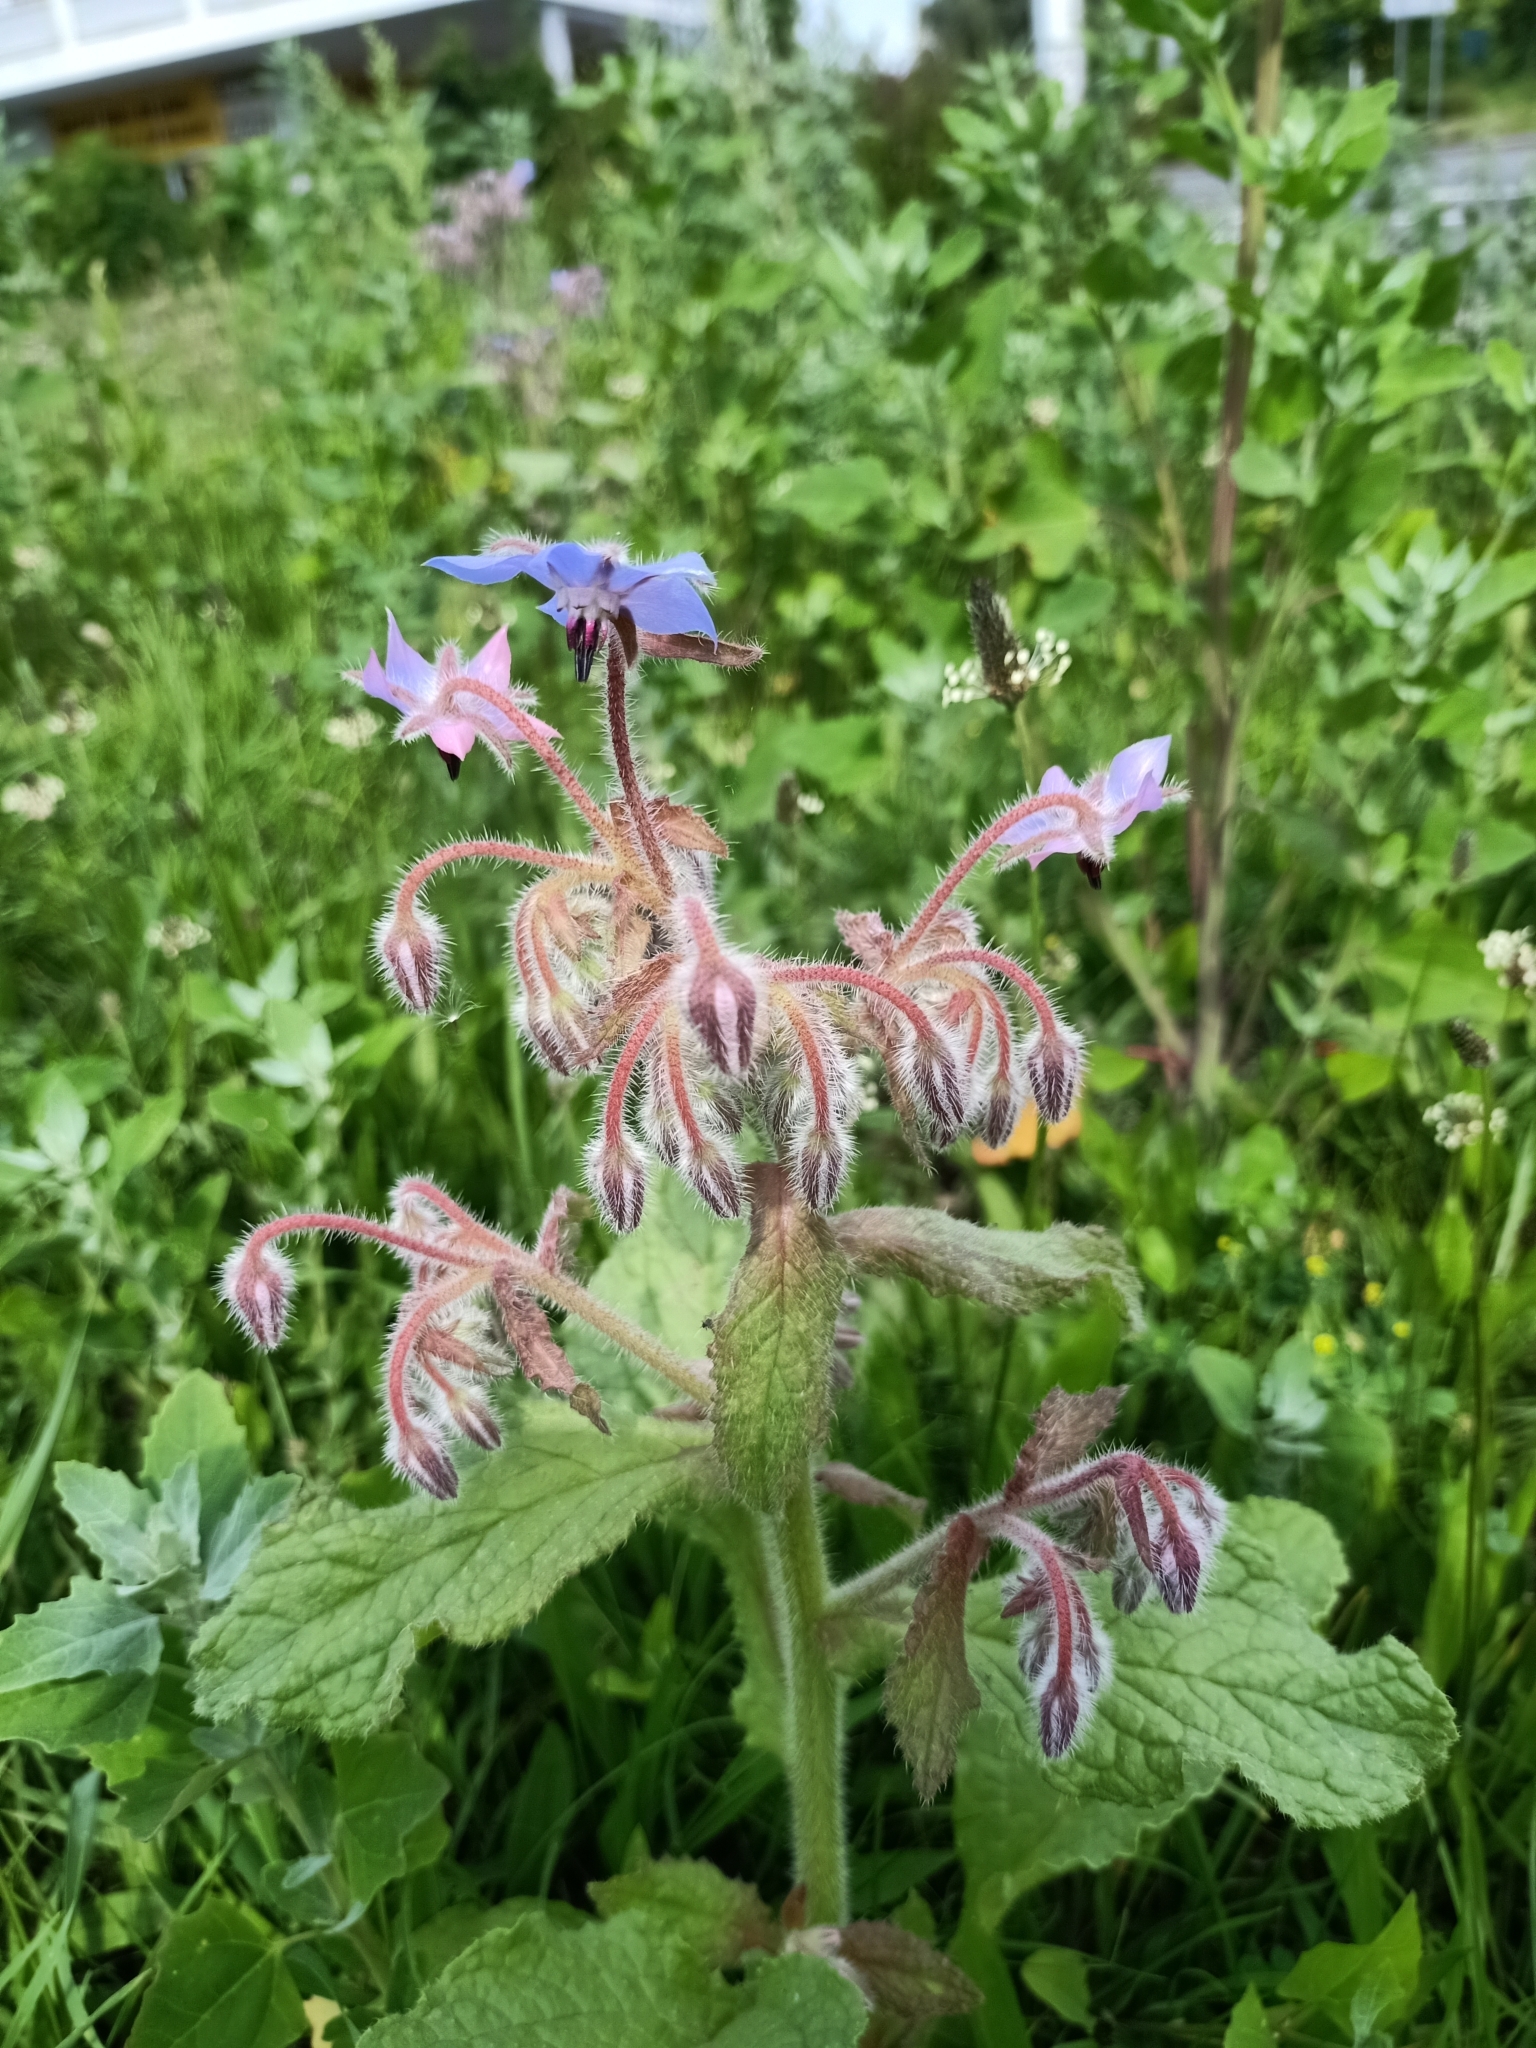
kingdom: Plantae
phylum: Tracheophyta
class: Magnoliopsida
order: Boraginales
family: Boraginaceae
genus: Borago
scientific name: Borago officinalis
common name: Borage
